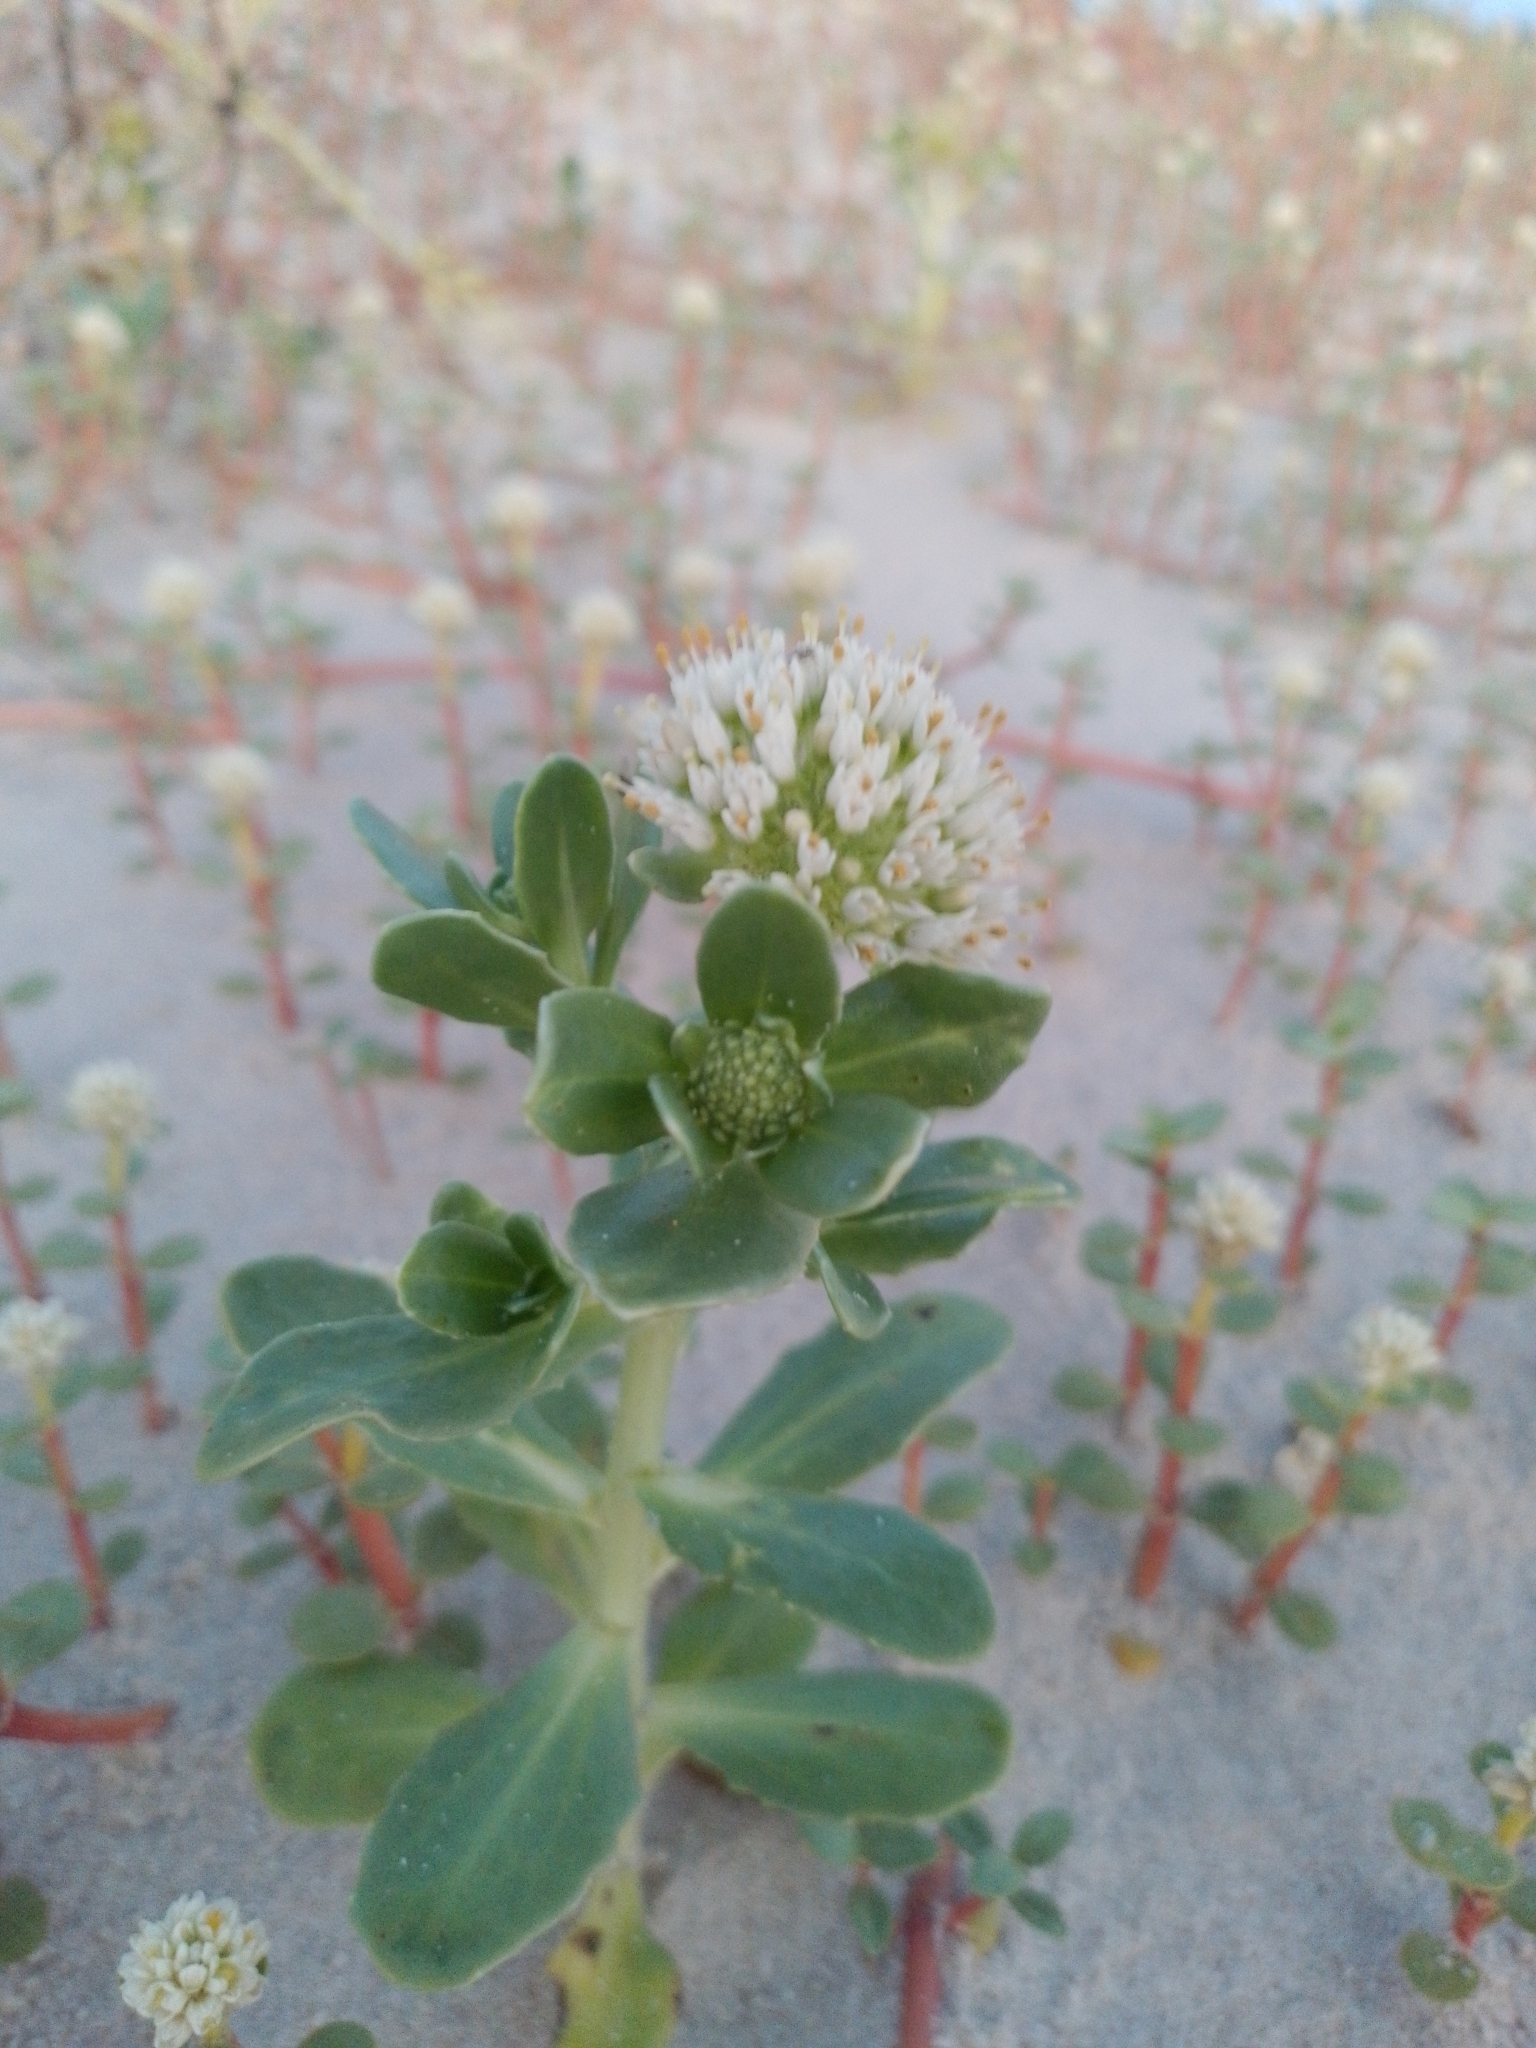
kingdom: Plantae
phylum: Tracheophyta
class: Magnoliopsida
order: Asterales
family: Calyceraceae
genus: Calycera
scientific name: Calycera crassifolia
